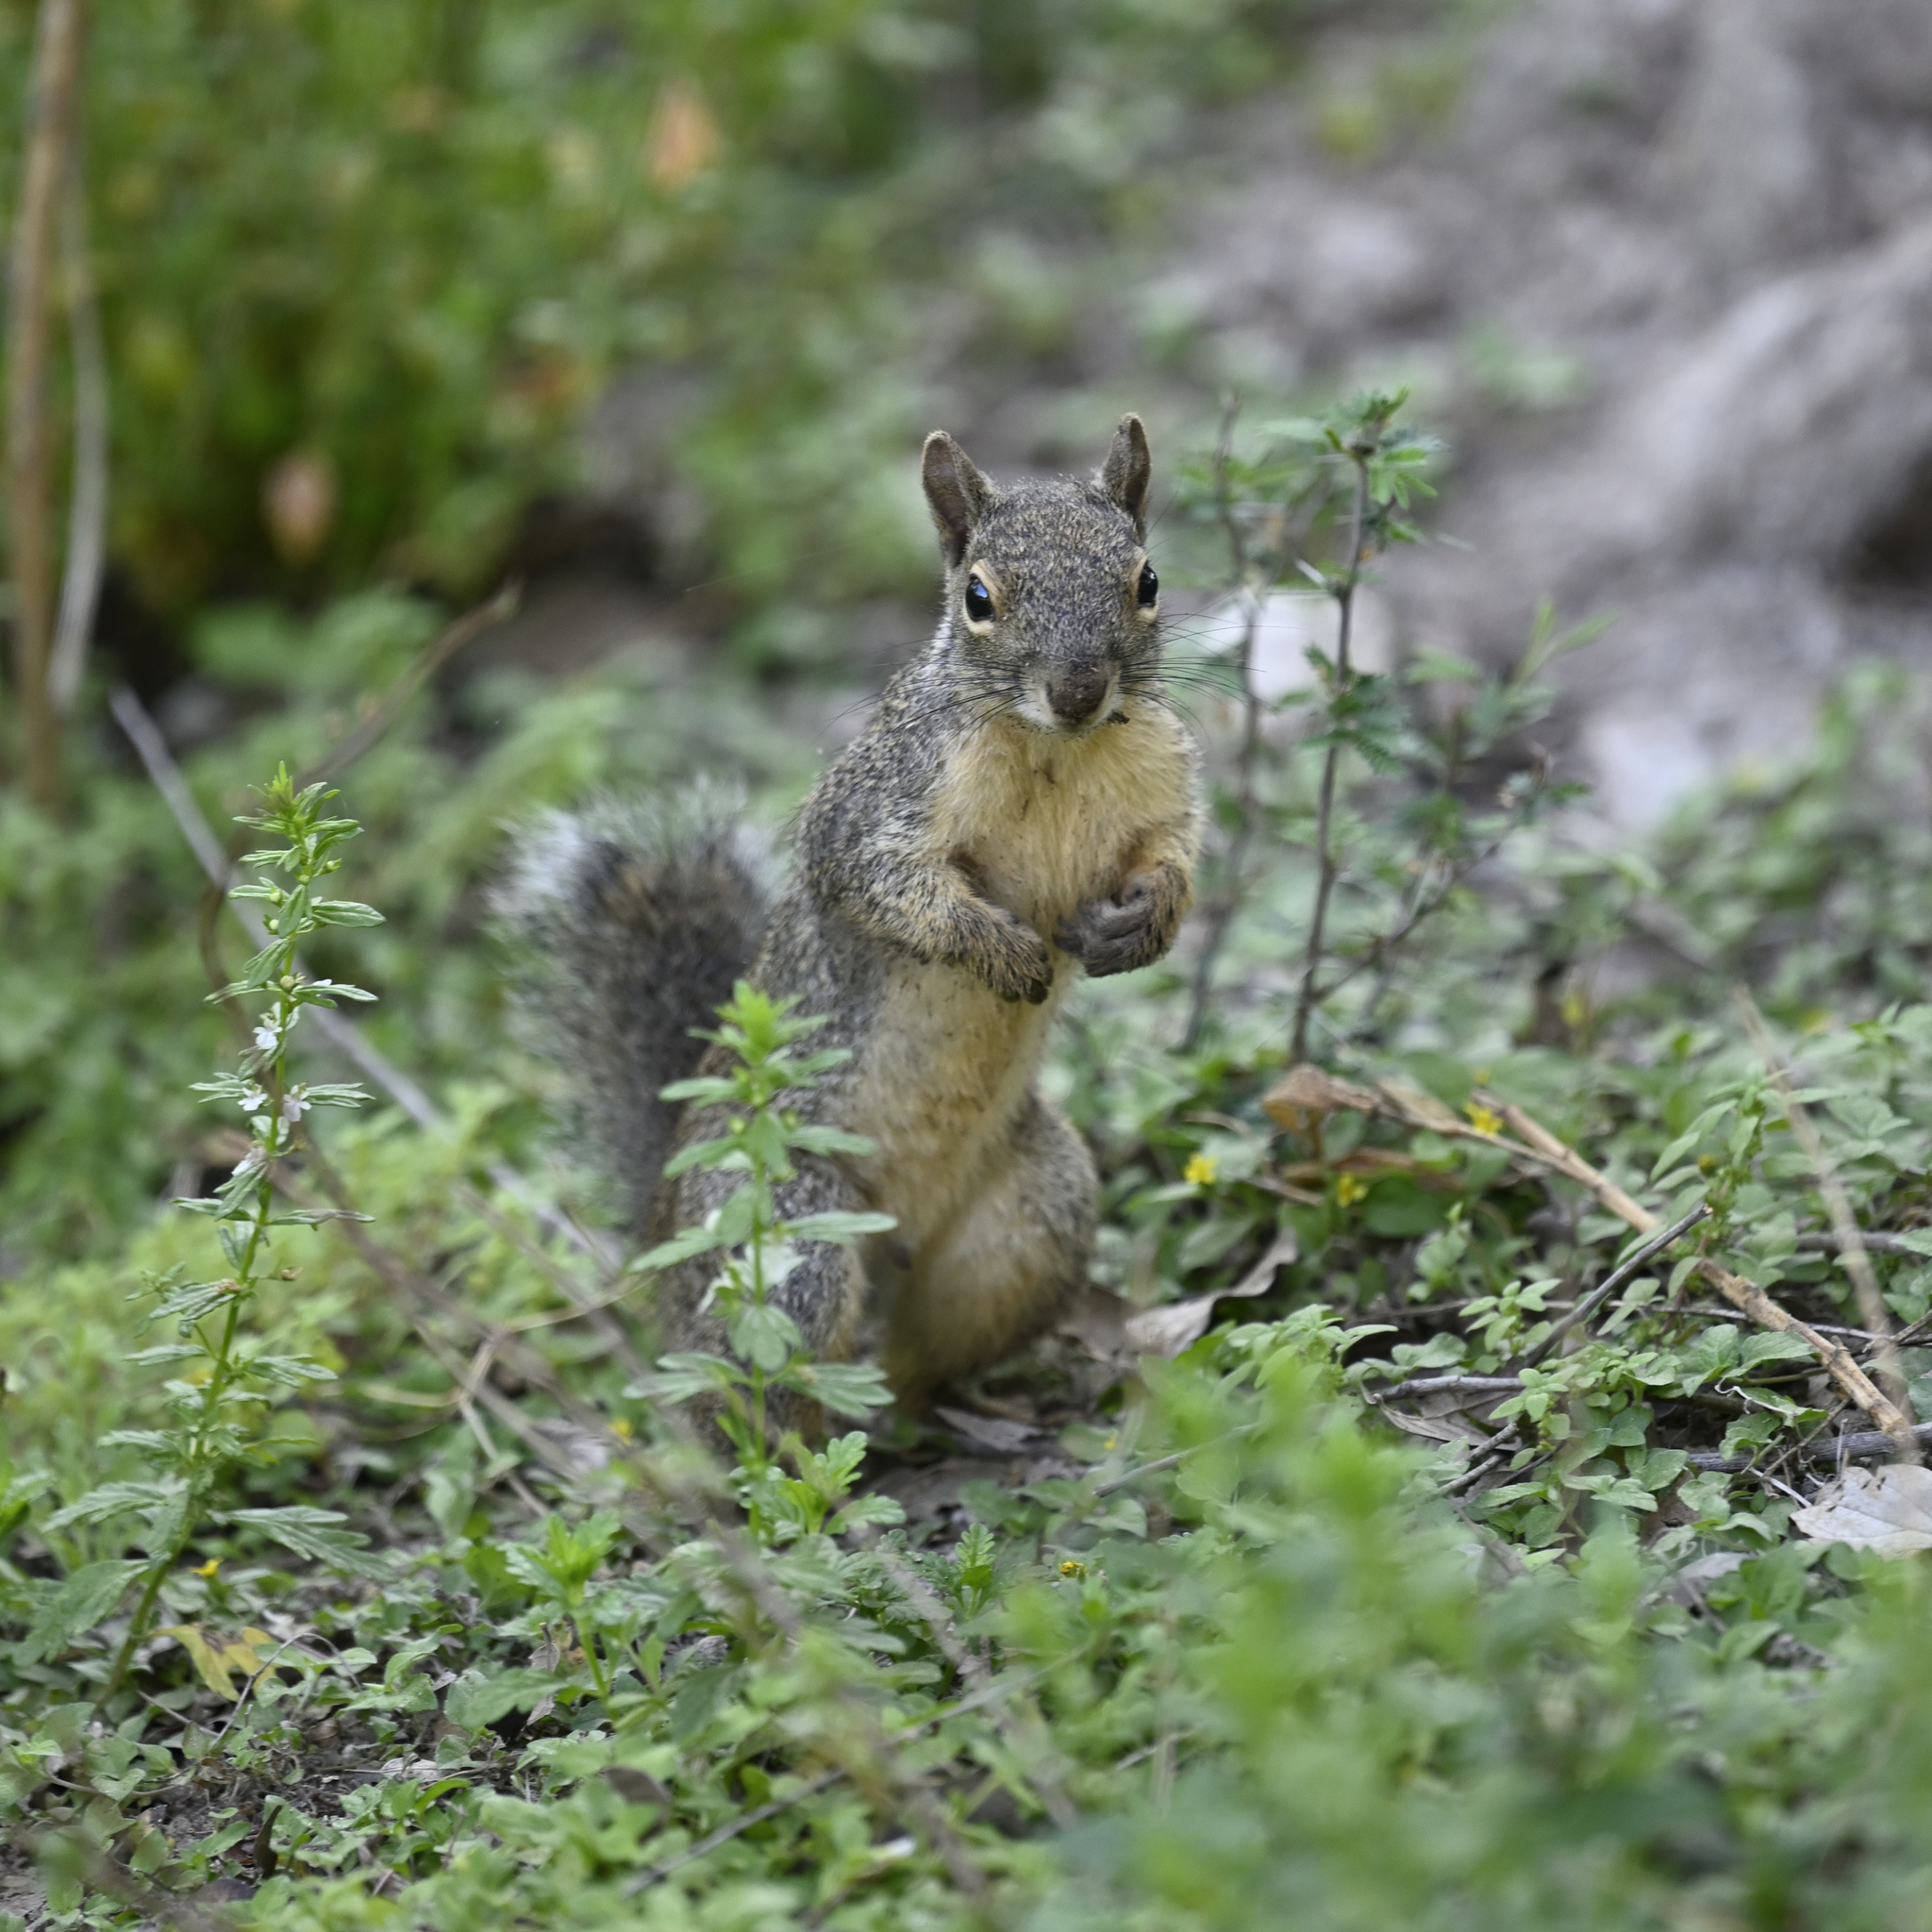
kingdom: Animalia
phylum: Chordata
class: Mammalia
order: Rodentia
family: Sciuridae
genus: Sciurus
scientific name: Sciurus alleni
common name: Allen's squirrel
